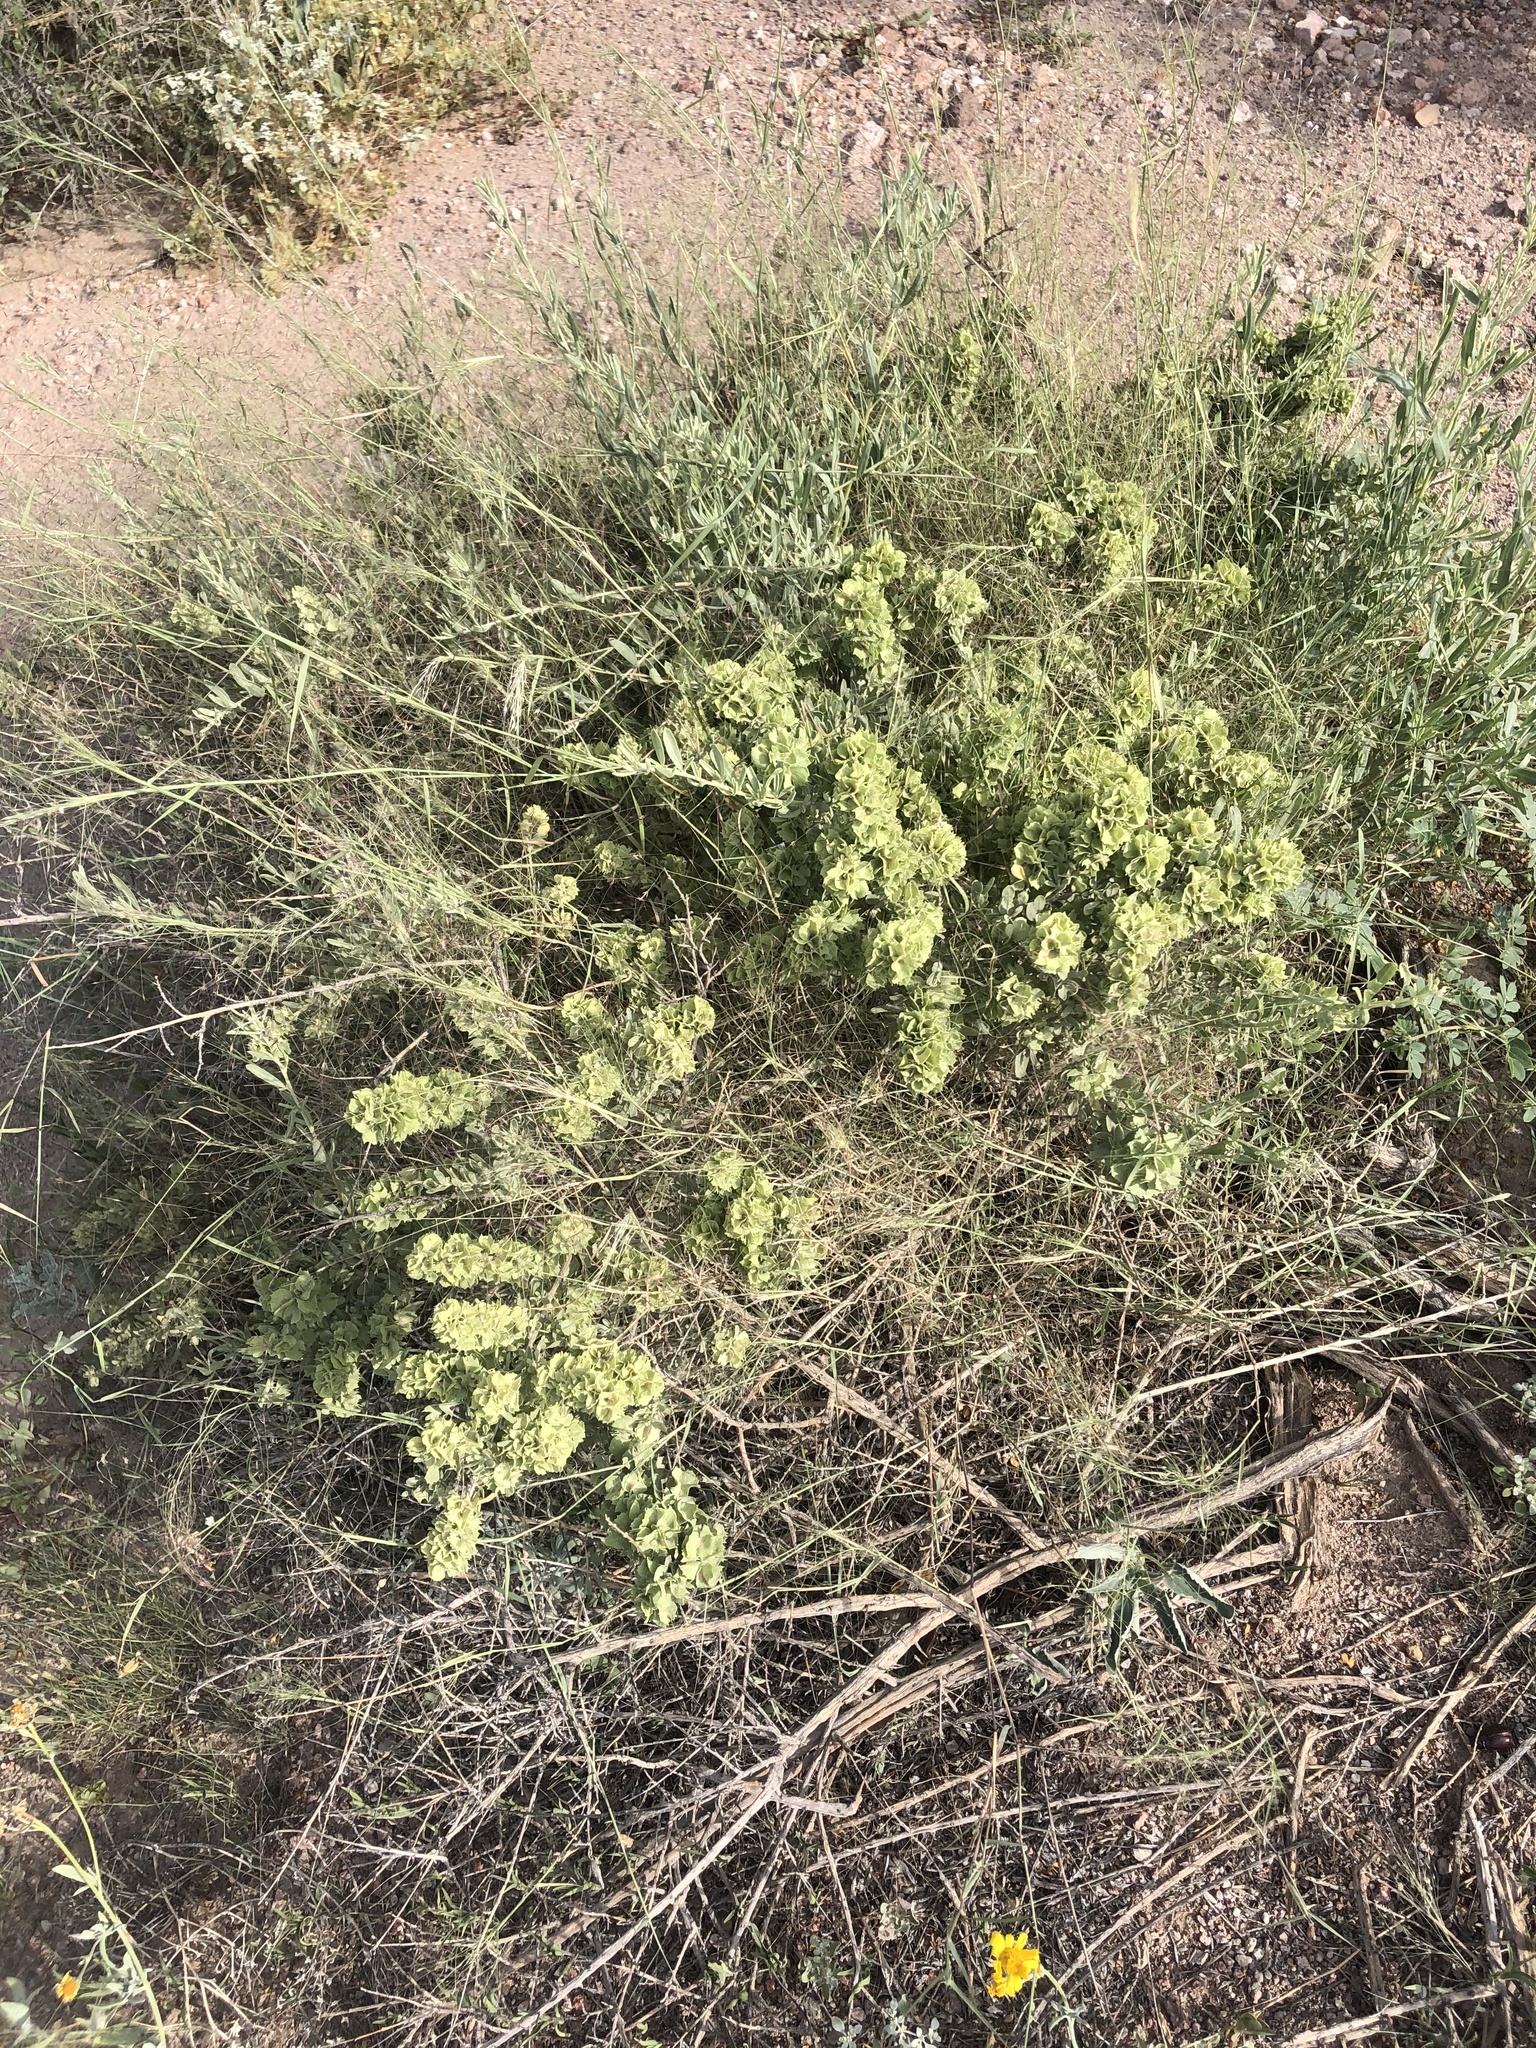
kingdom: Plantae
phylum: Tracheophyta
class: Magnoliopsida
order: Caryophyllales
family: Amaranthaceae
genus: Atriplex
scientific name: Atriplex canescens
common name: Four-wing saltbush
